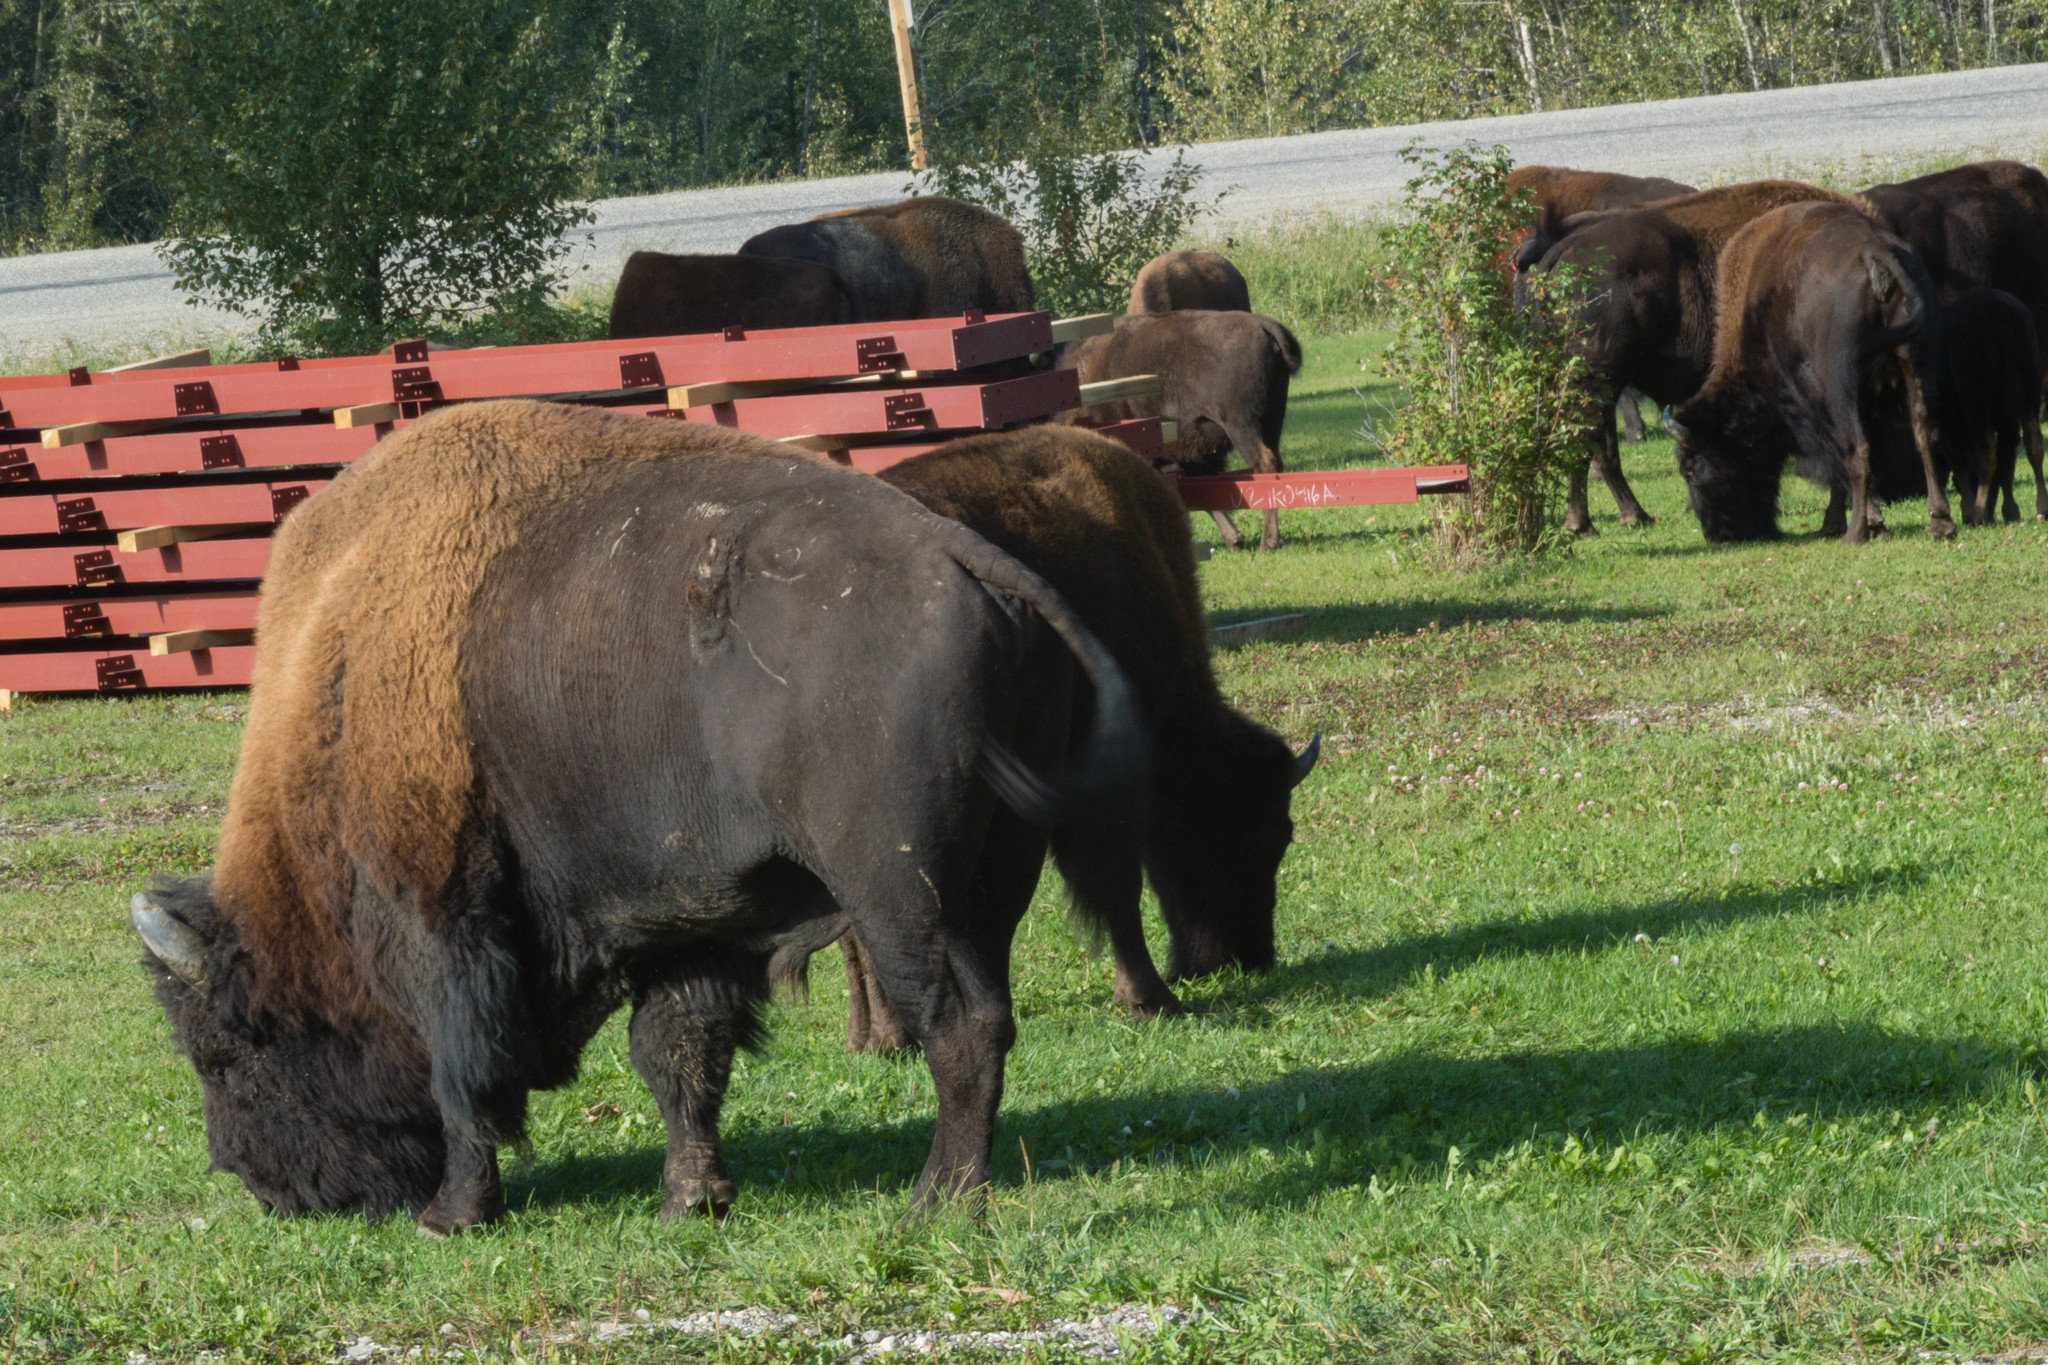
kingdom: Animalia
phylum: Chordata
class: Mammalia
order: Artiodactyla
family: Bovidae
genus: Bison
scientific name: Bison bison
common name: American bison
